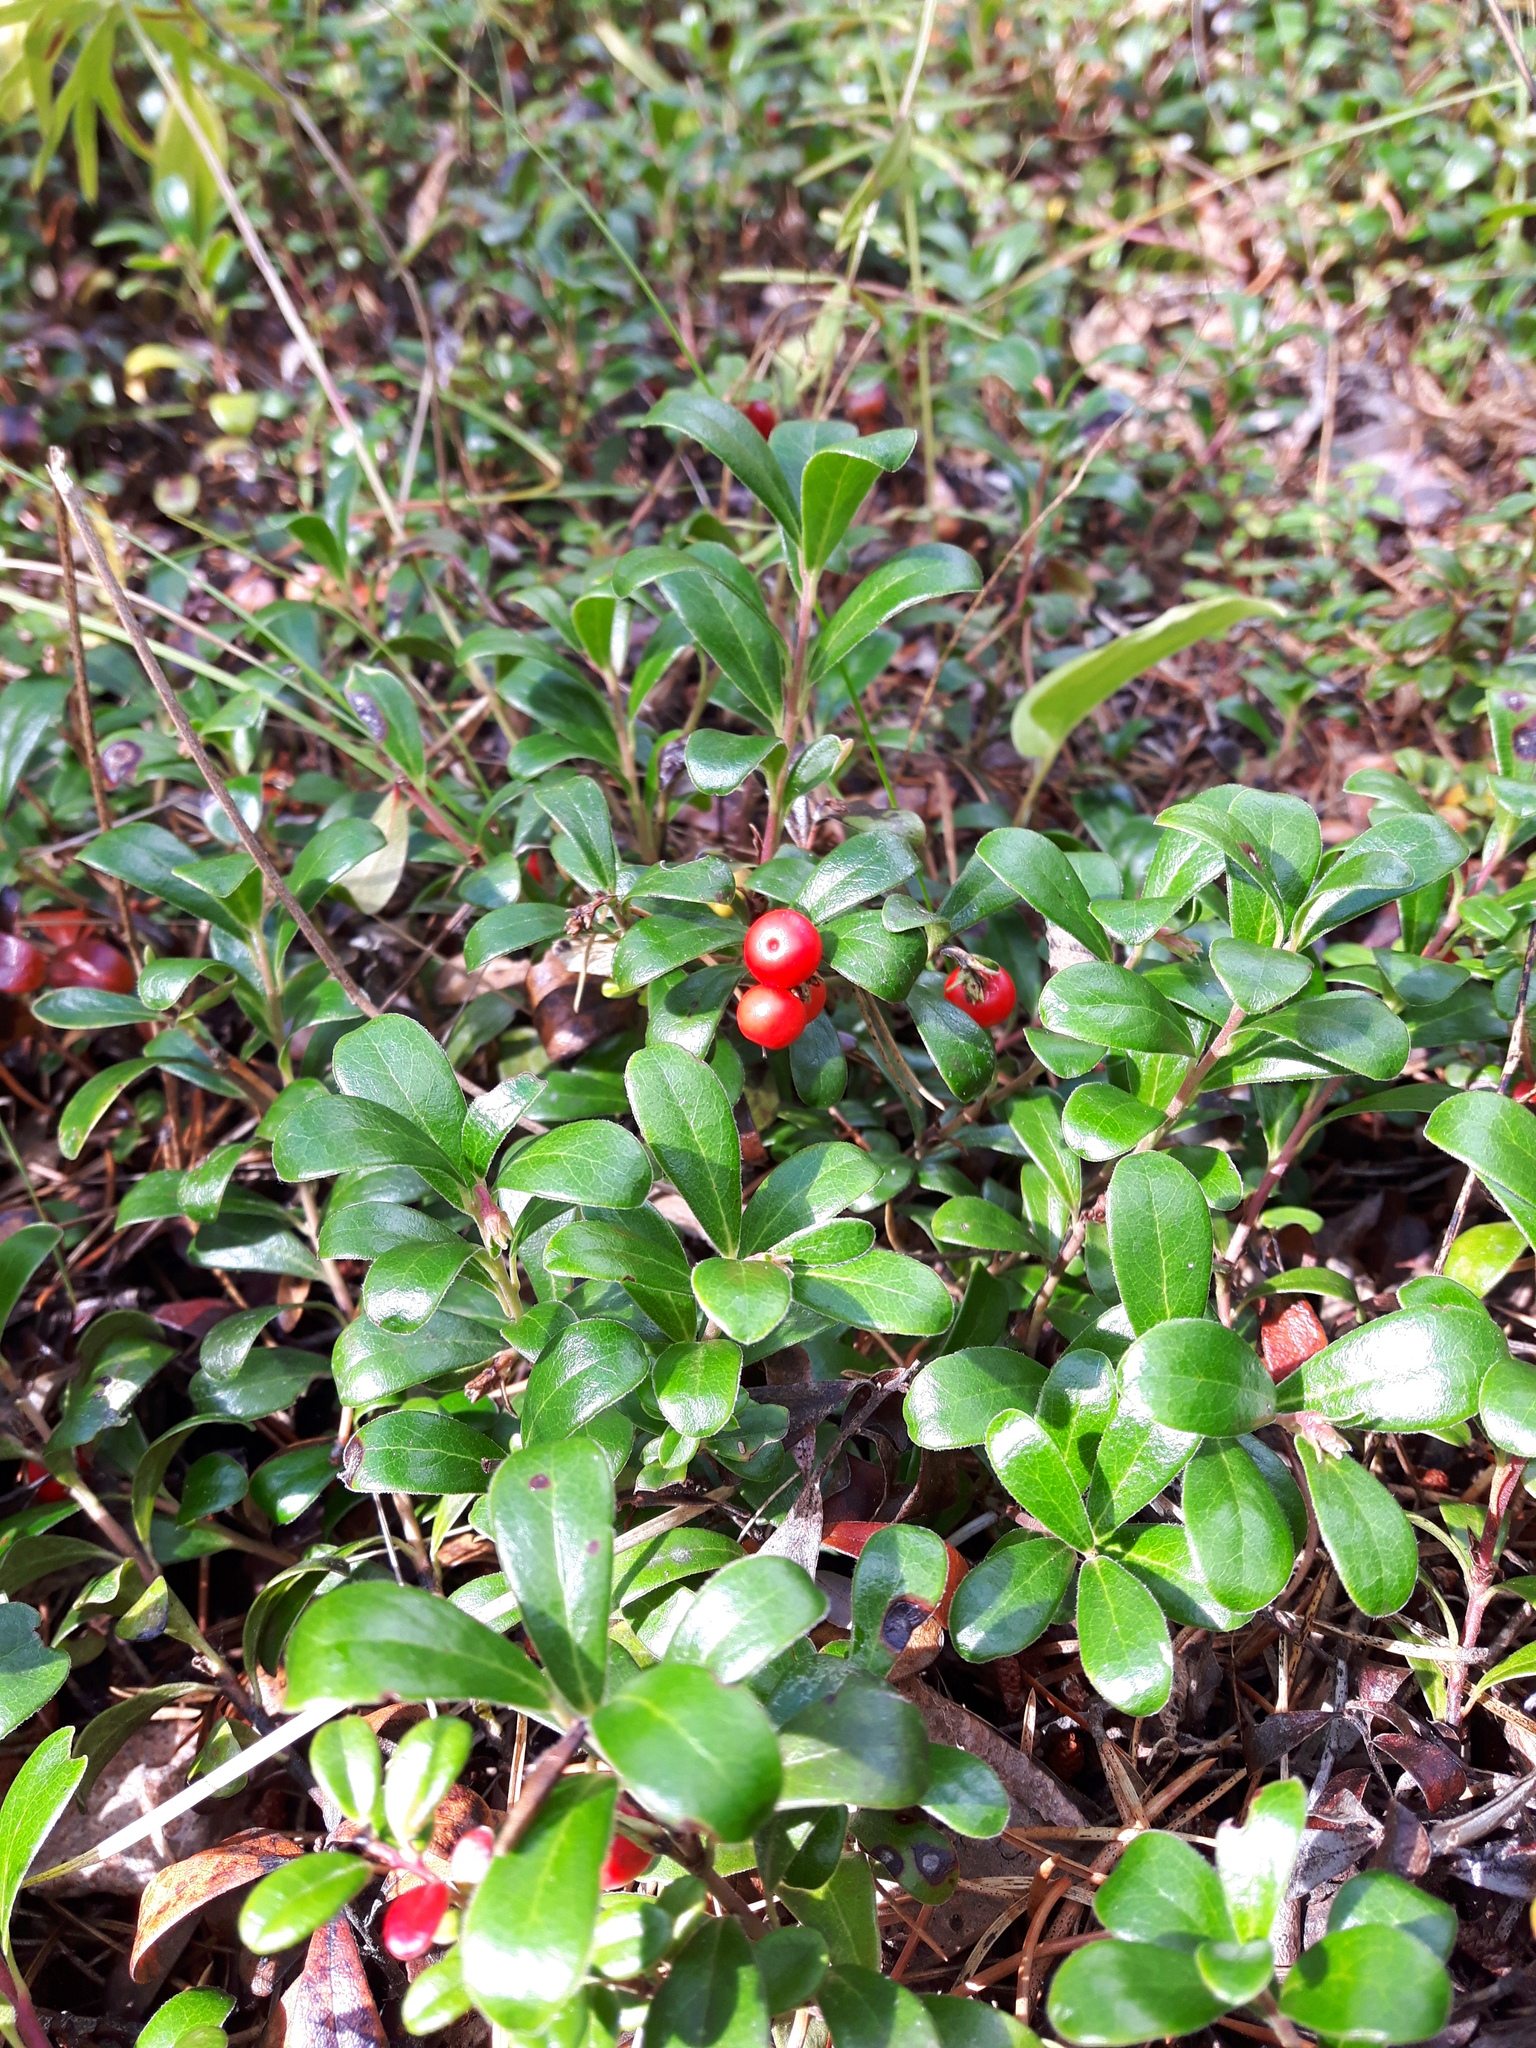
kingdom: Plantae
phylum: Tracheophyta
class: Magnoliopsida
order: Ericales
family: Ericaceae
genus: Arctostaphylos
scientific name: Arctostaphylos uva-ursi
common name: Bearberry
